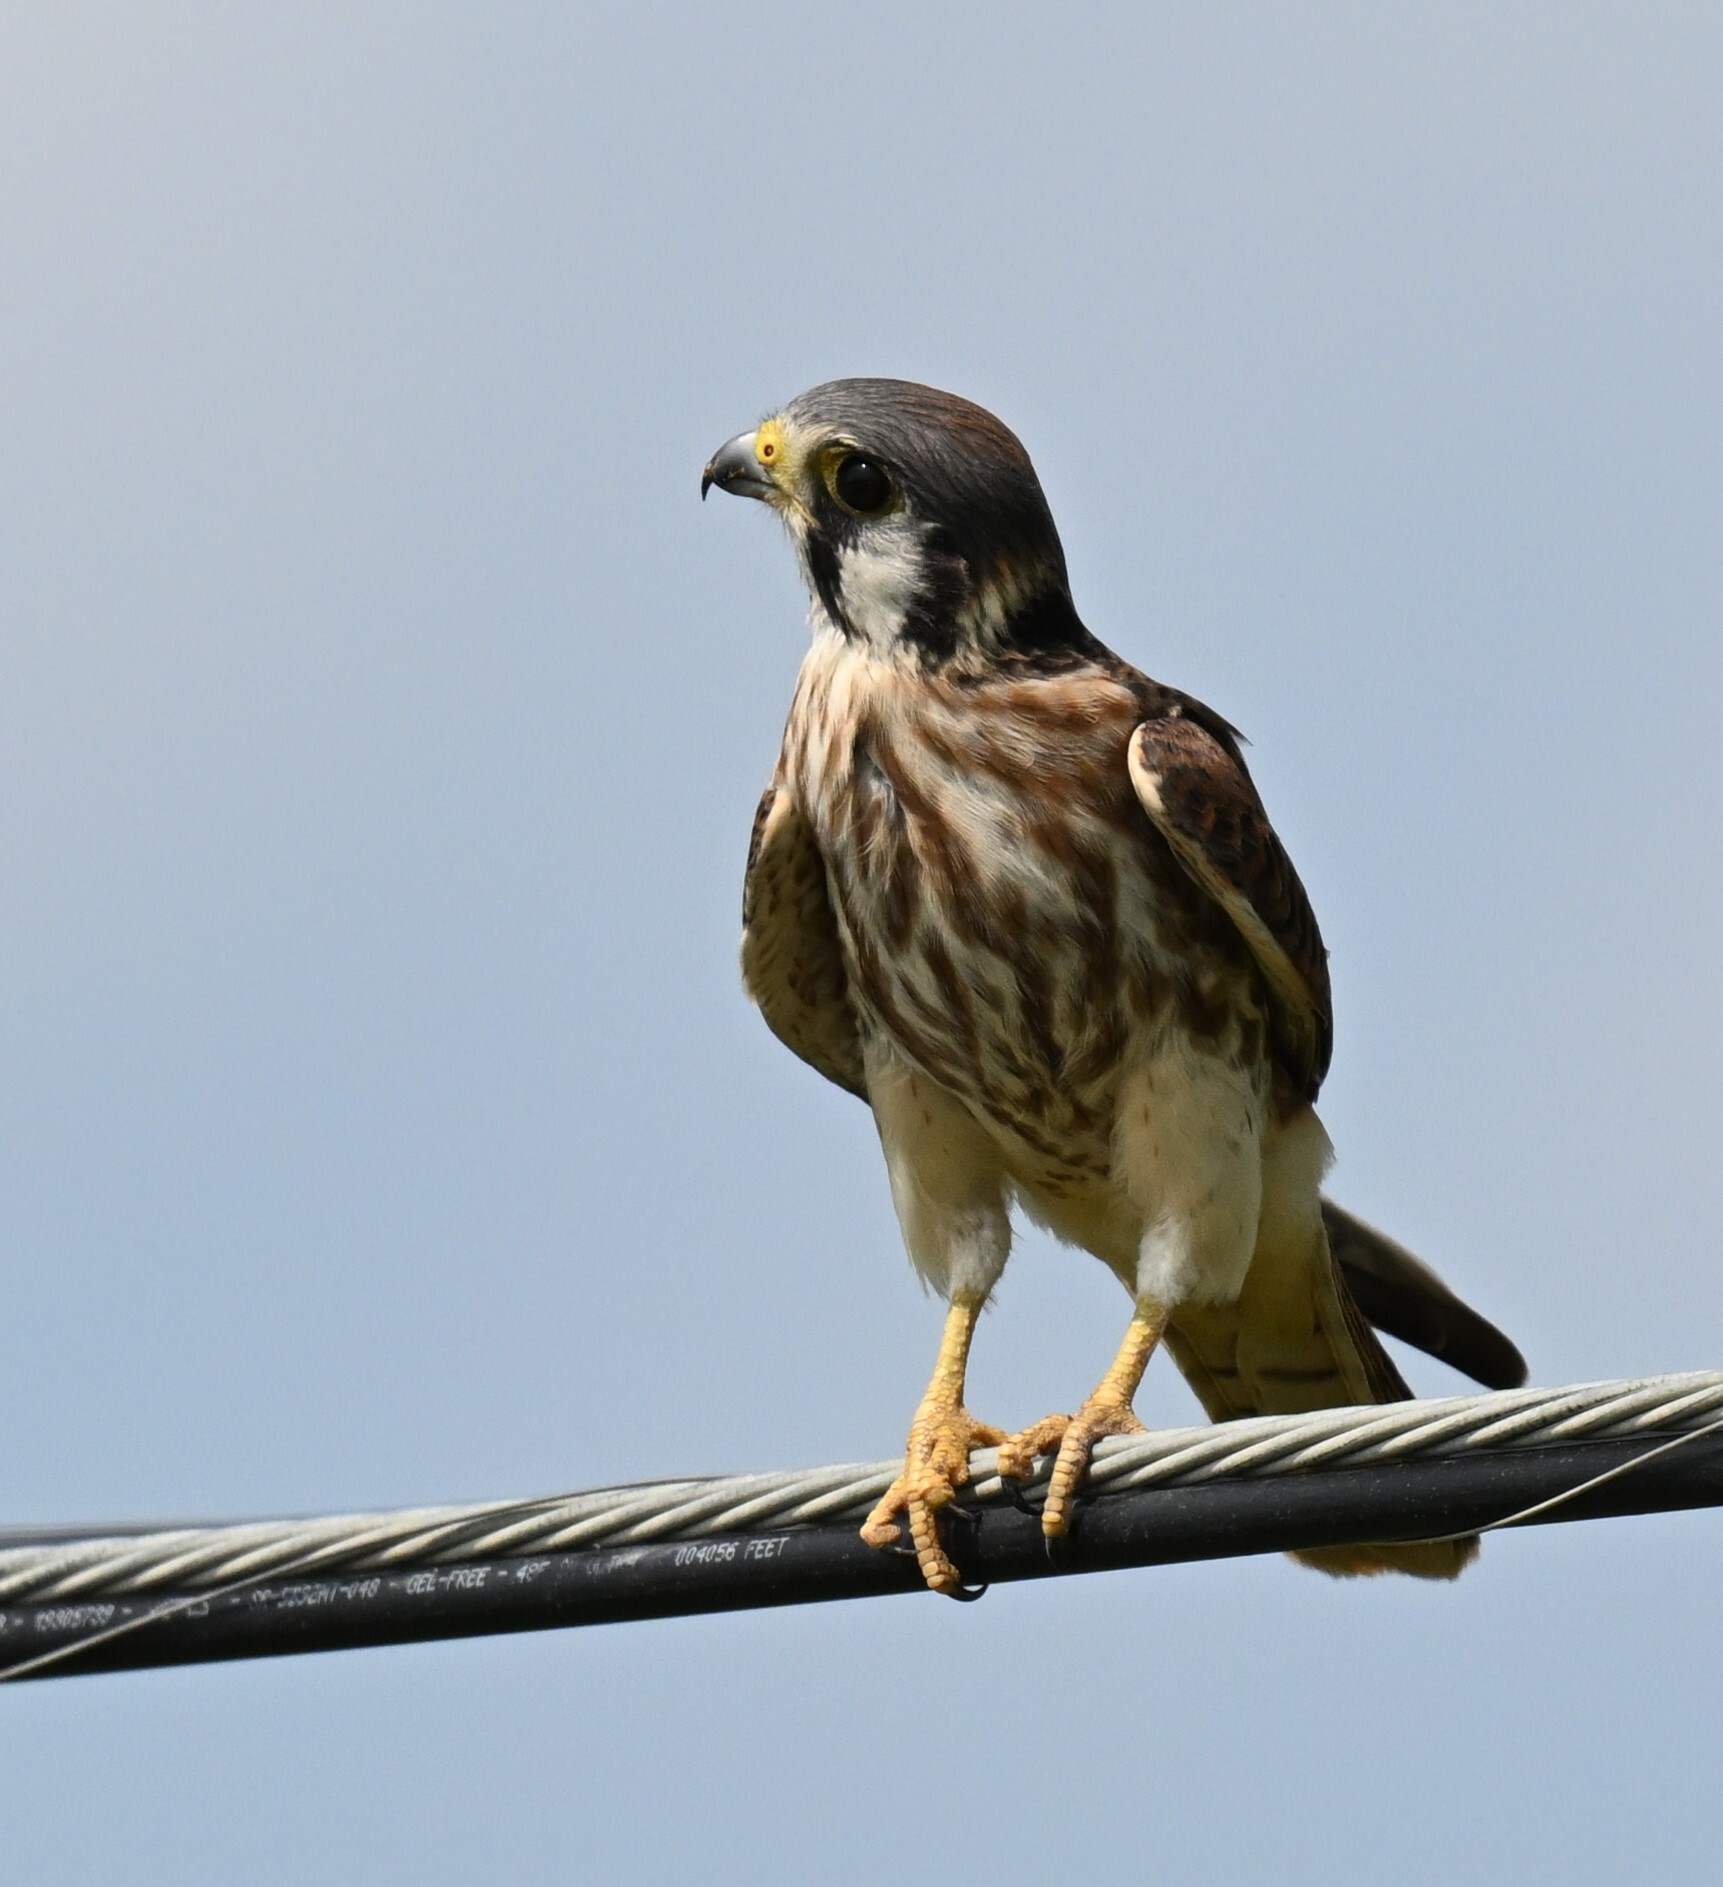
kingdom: Animalia
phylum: Chordata
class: Aves
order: Falconiformes
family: Falconidae
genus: Falco
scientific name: Falco sparverius
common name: American kestrel
